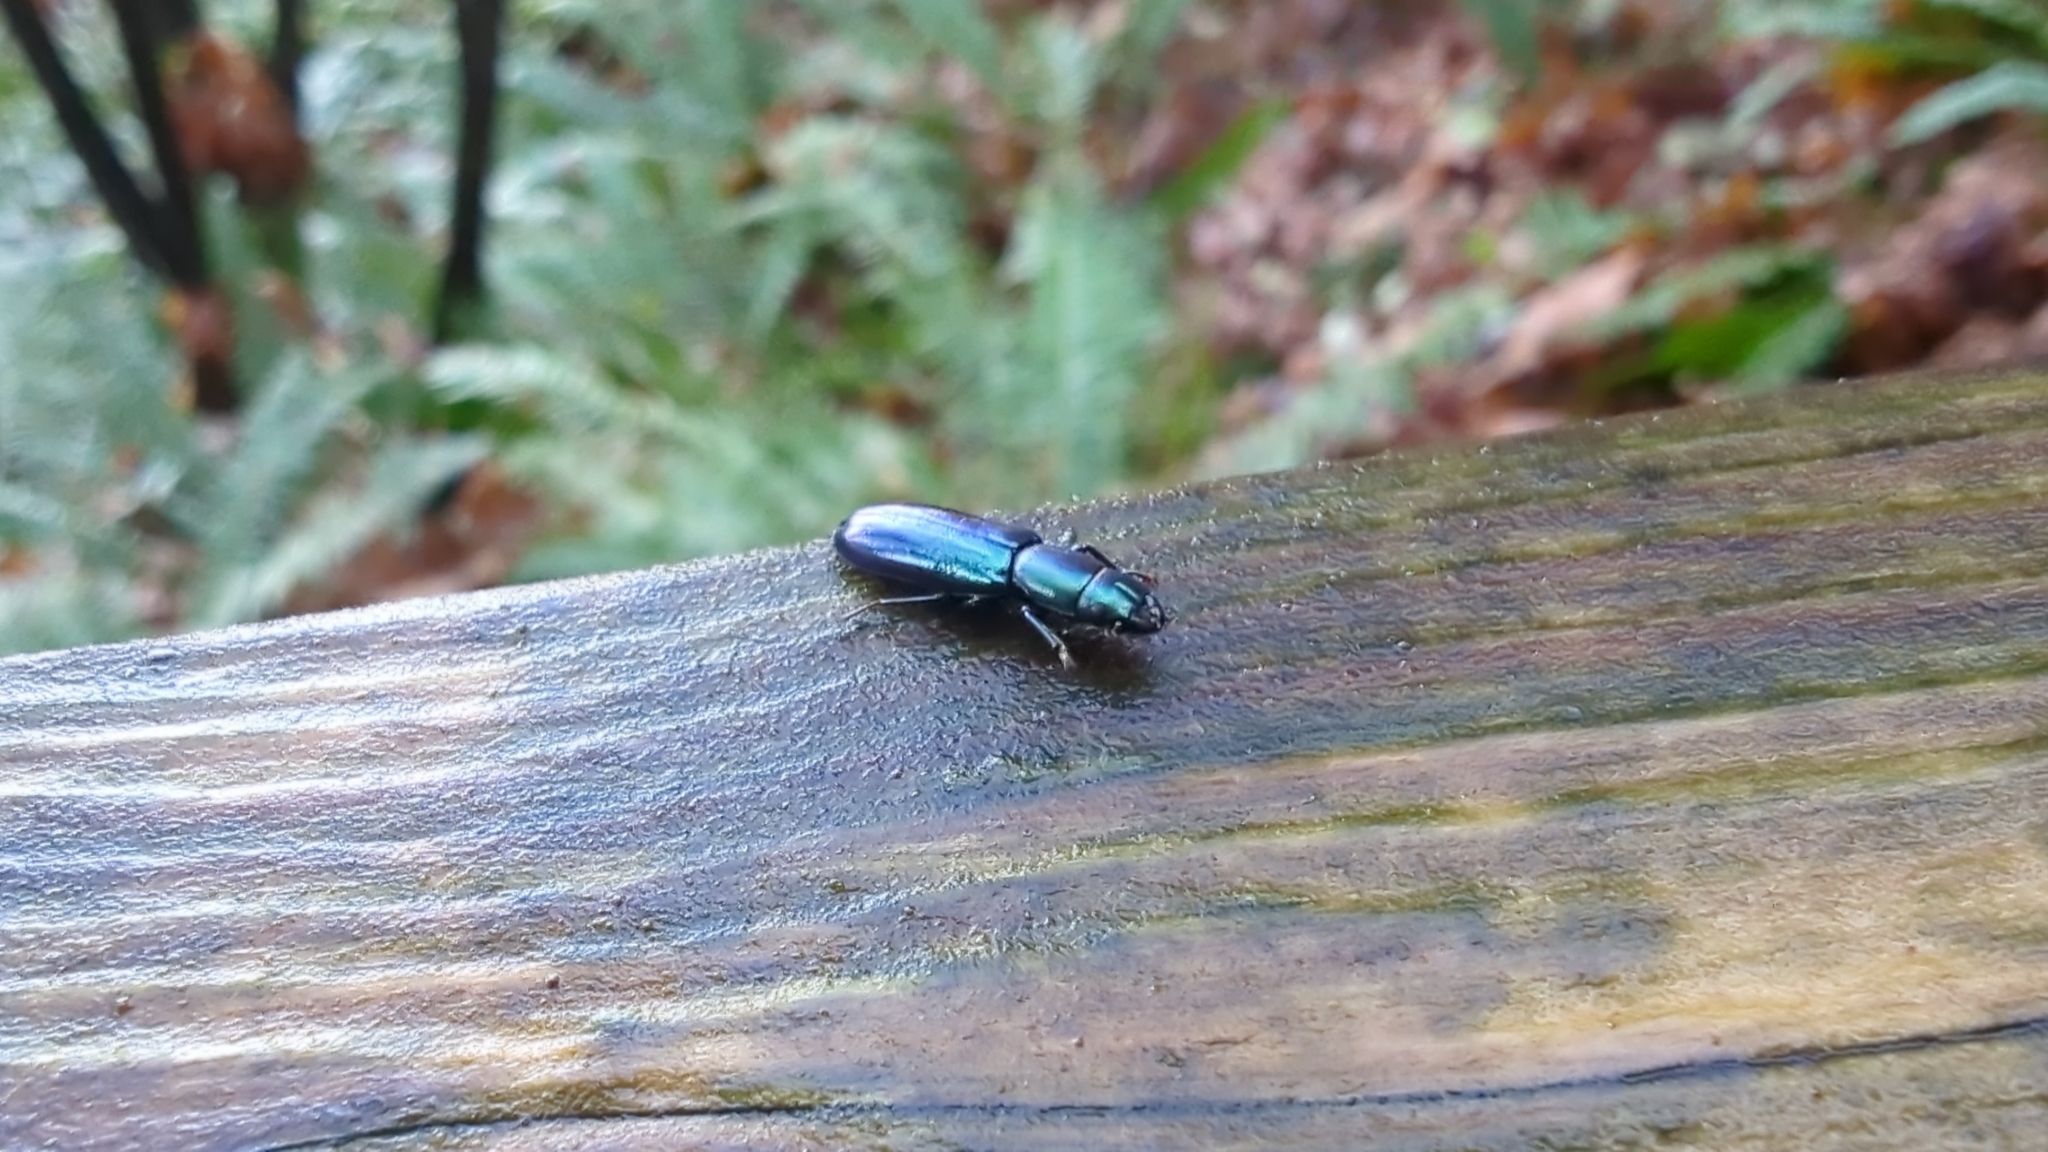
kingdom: Animalia
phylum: Arthropoda
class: Insecta
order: Coleoptera
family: Trogossitidae
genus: Temnoscheila
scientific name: Temnoscheila chlorodia
